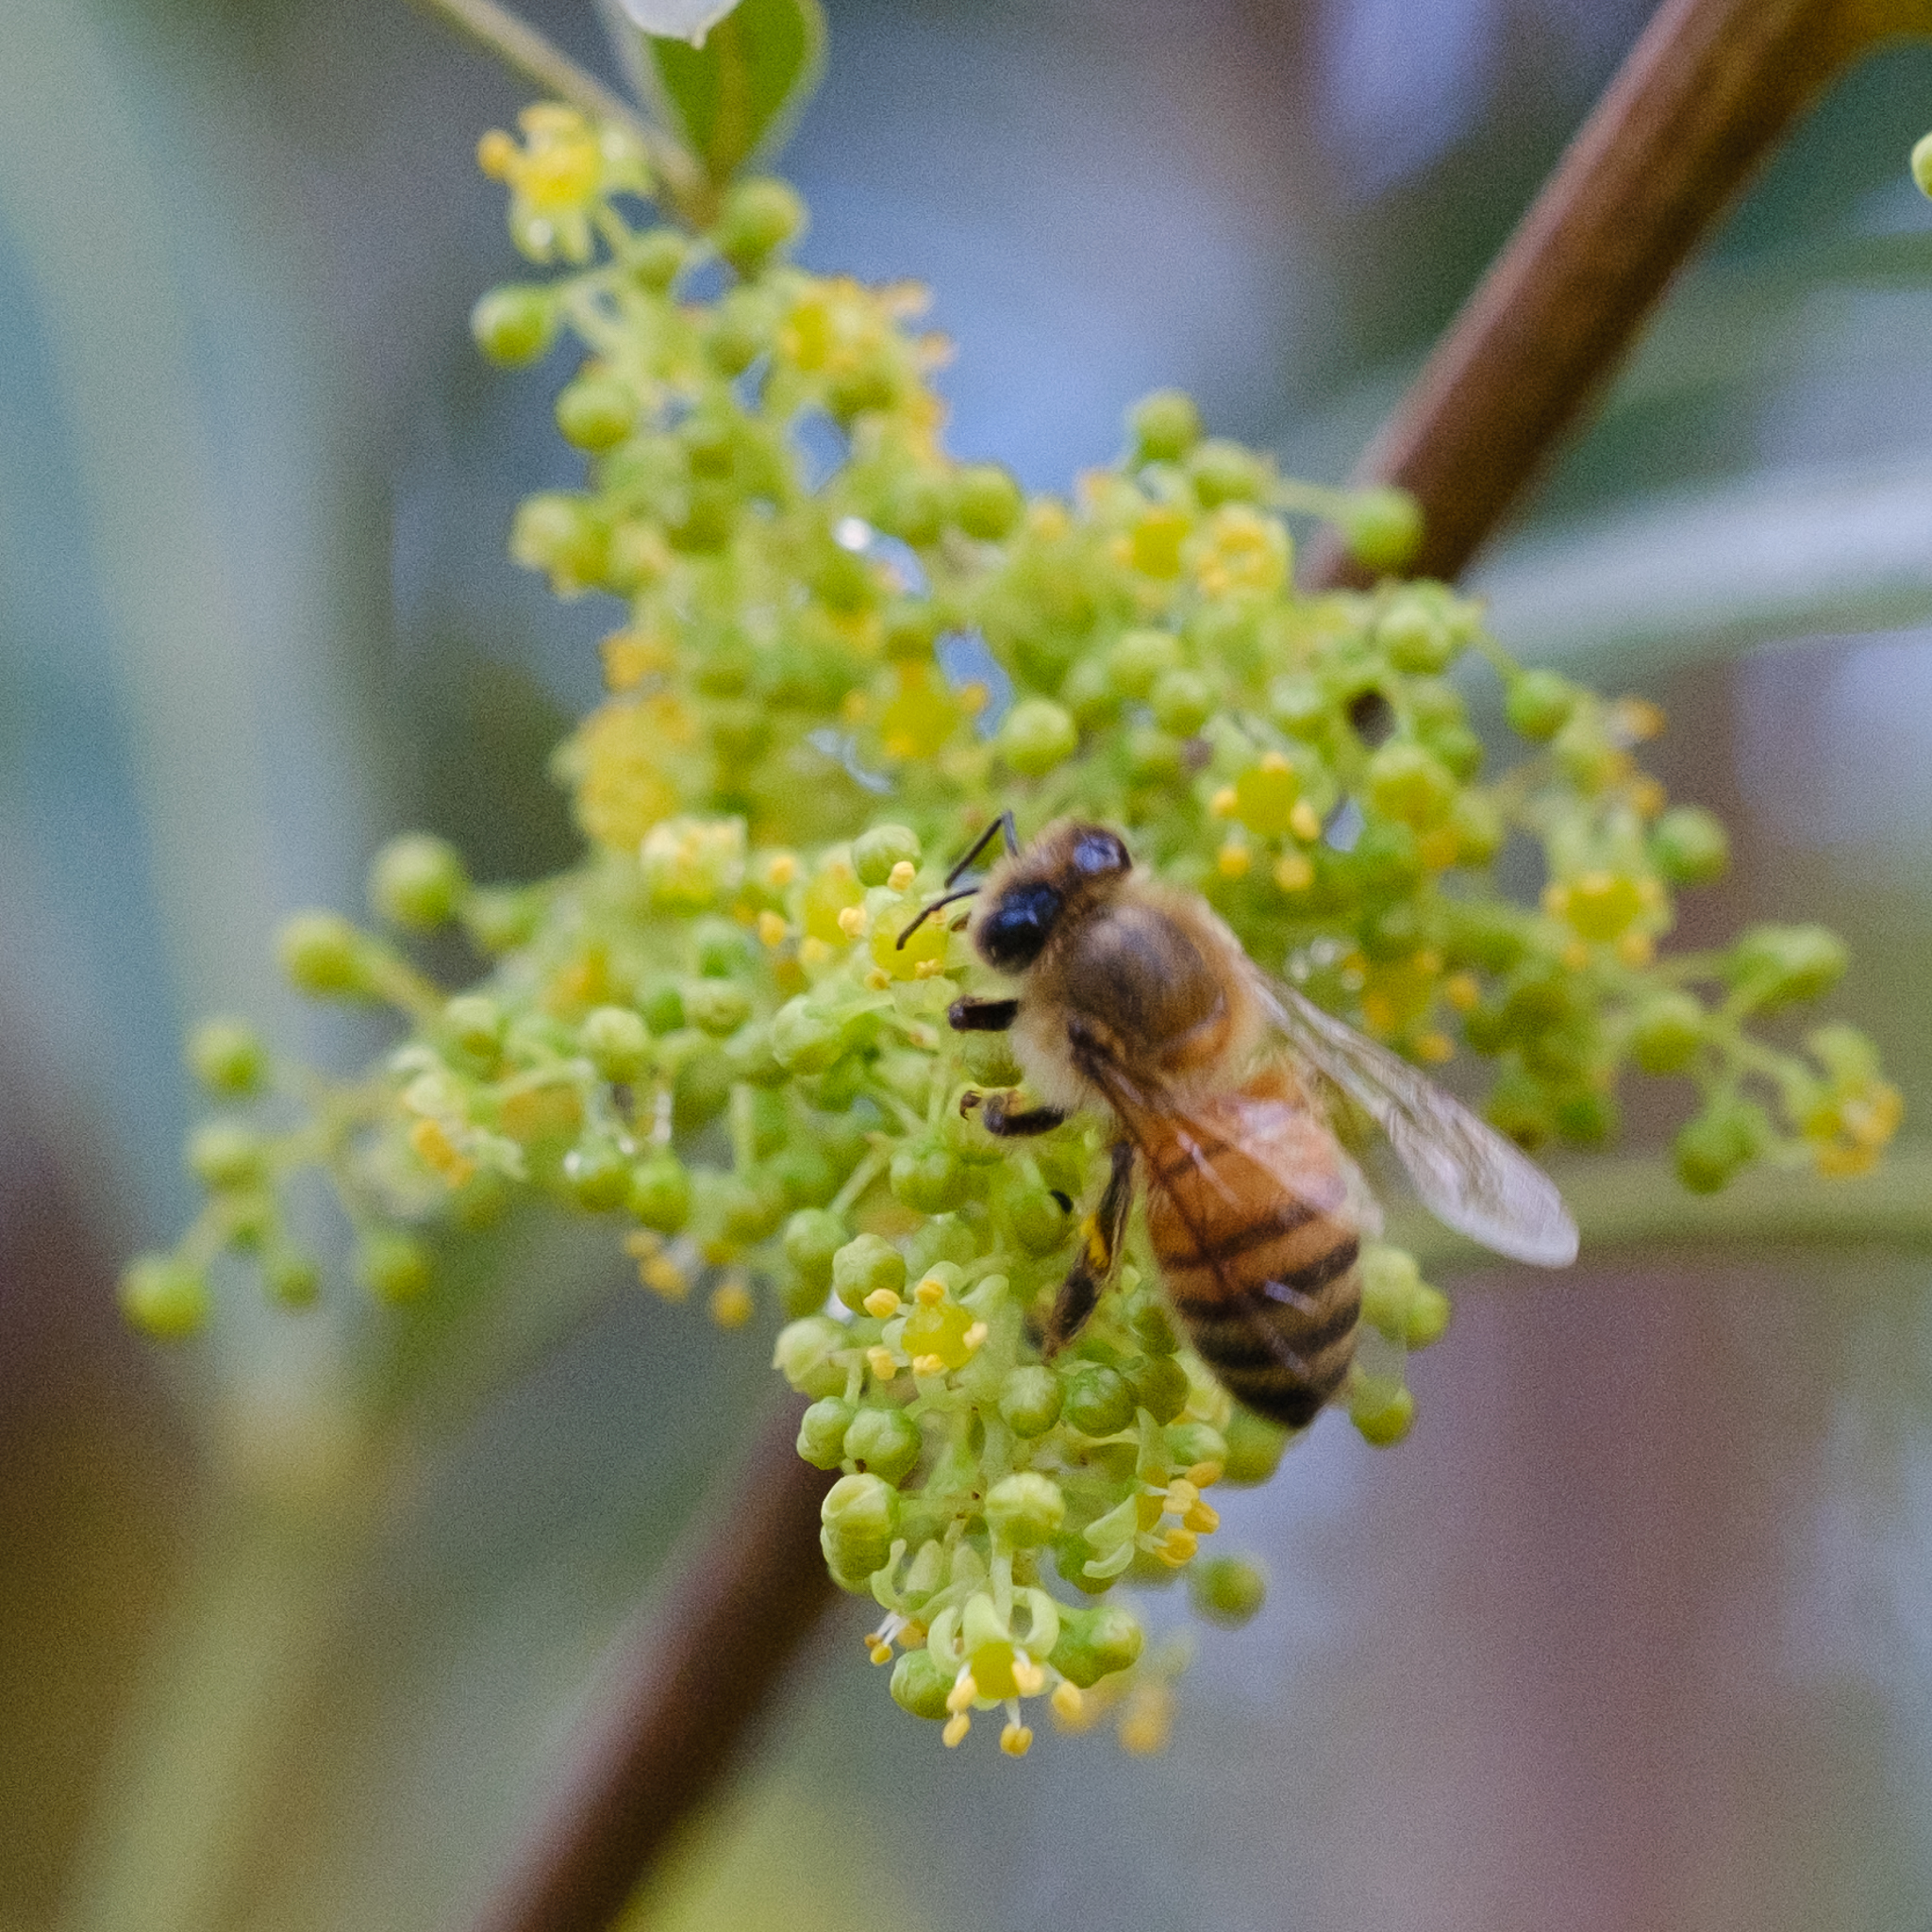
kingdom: Animalia
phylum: Arthropoda
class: Insecta
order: Hymenoptera
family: Apidae
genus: Apis
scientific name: Apis mellifera
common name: Honey bee
